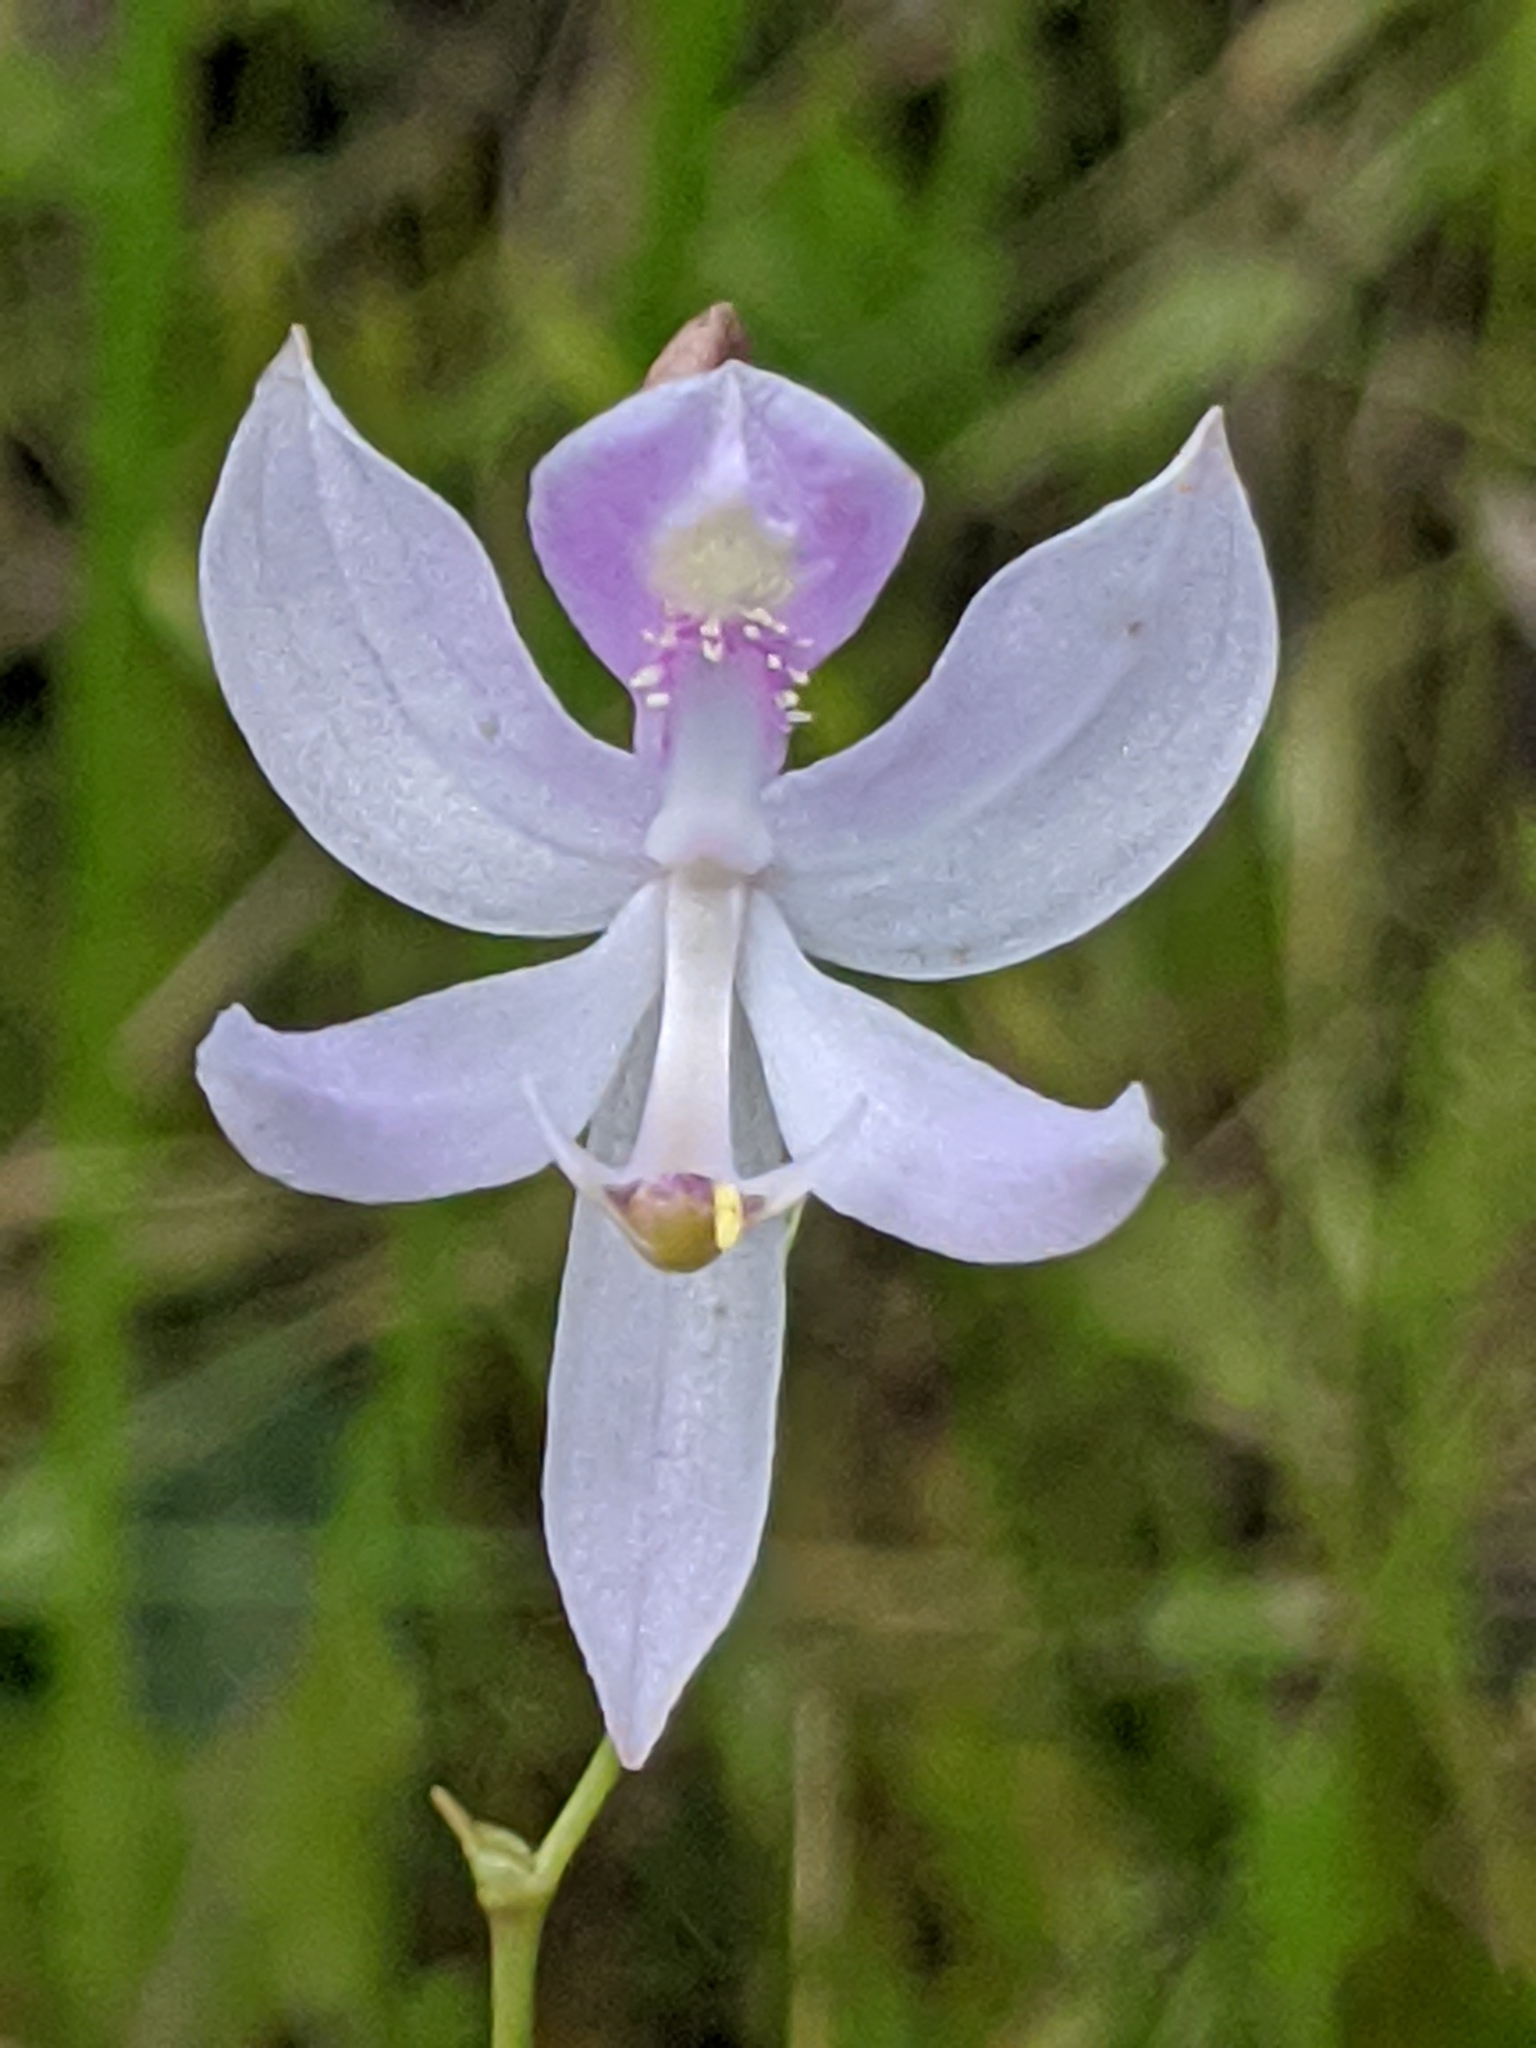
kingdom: Plantae
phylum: Tracheophyta
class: Liliopsida
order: Asparagales
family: Orchidaceae
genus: Calopogon
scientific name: Calopogon pallidus
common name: Pale grasspink
